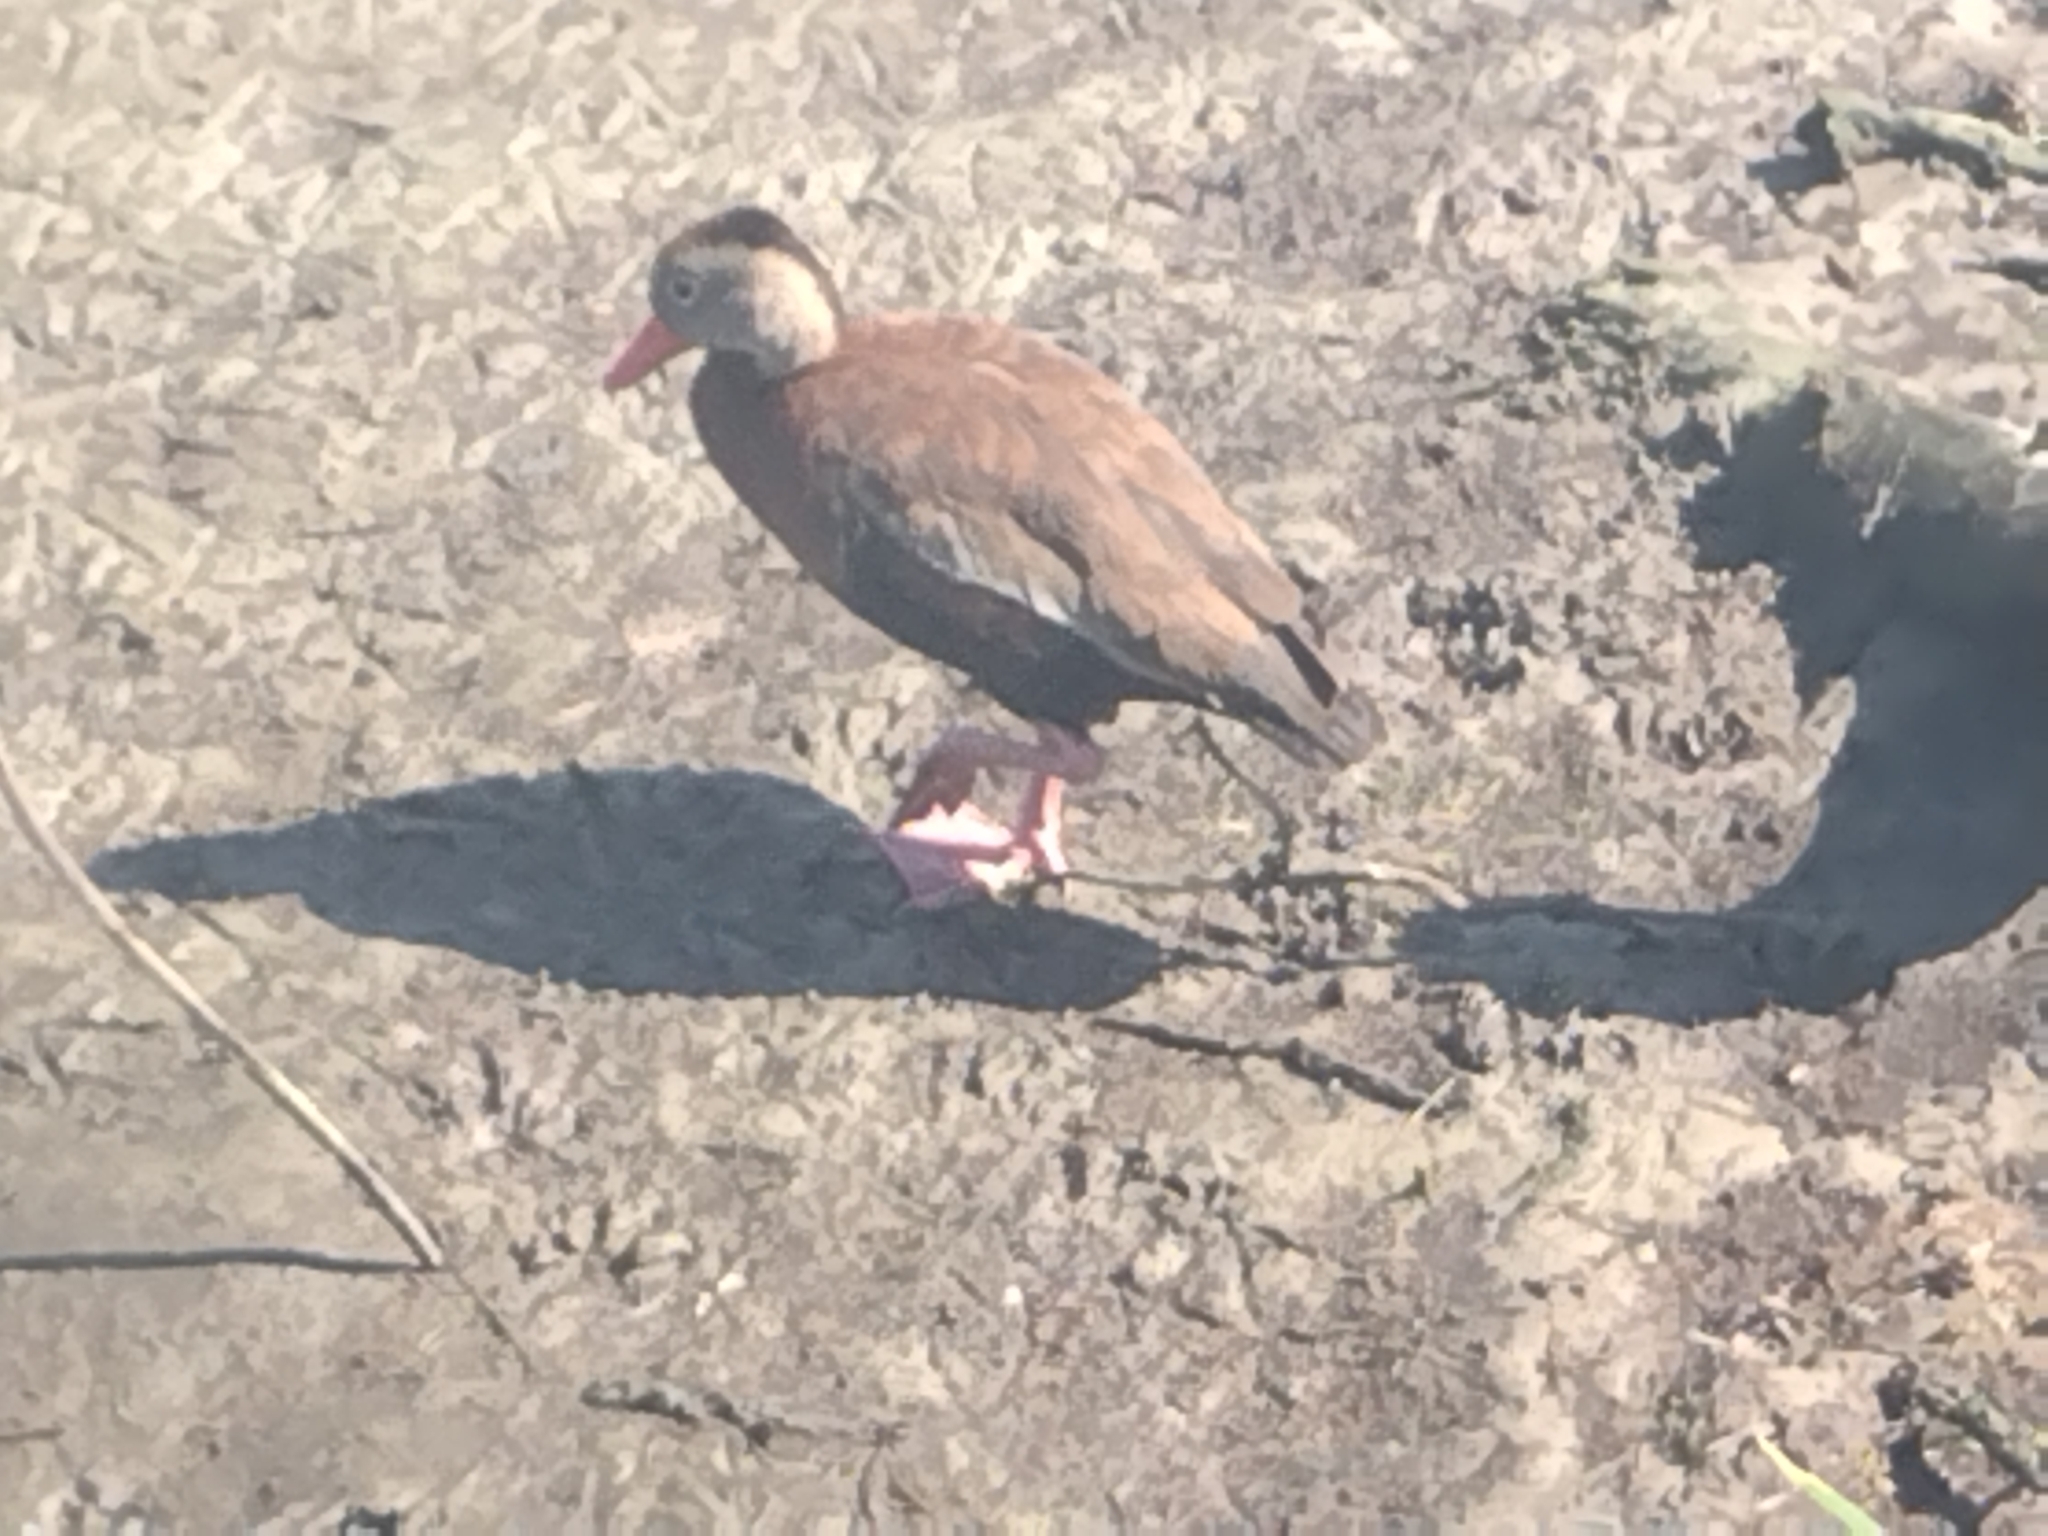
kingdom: Animalia
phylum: Chordata
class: Aves
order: Anseriformes
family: Anatidae
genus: Dendrocygna
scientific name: Dendrocygna autumnalis
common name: Black-bellied whistling duck
